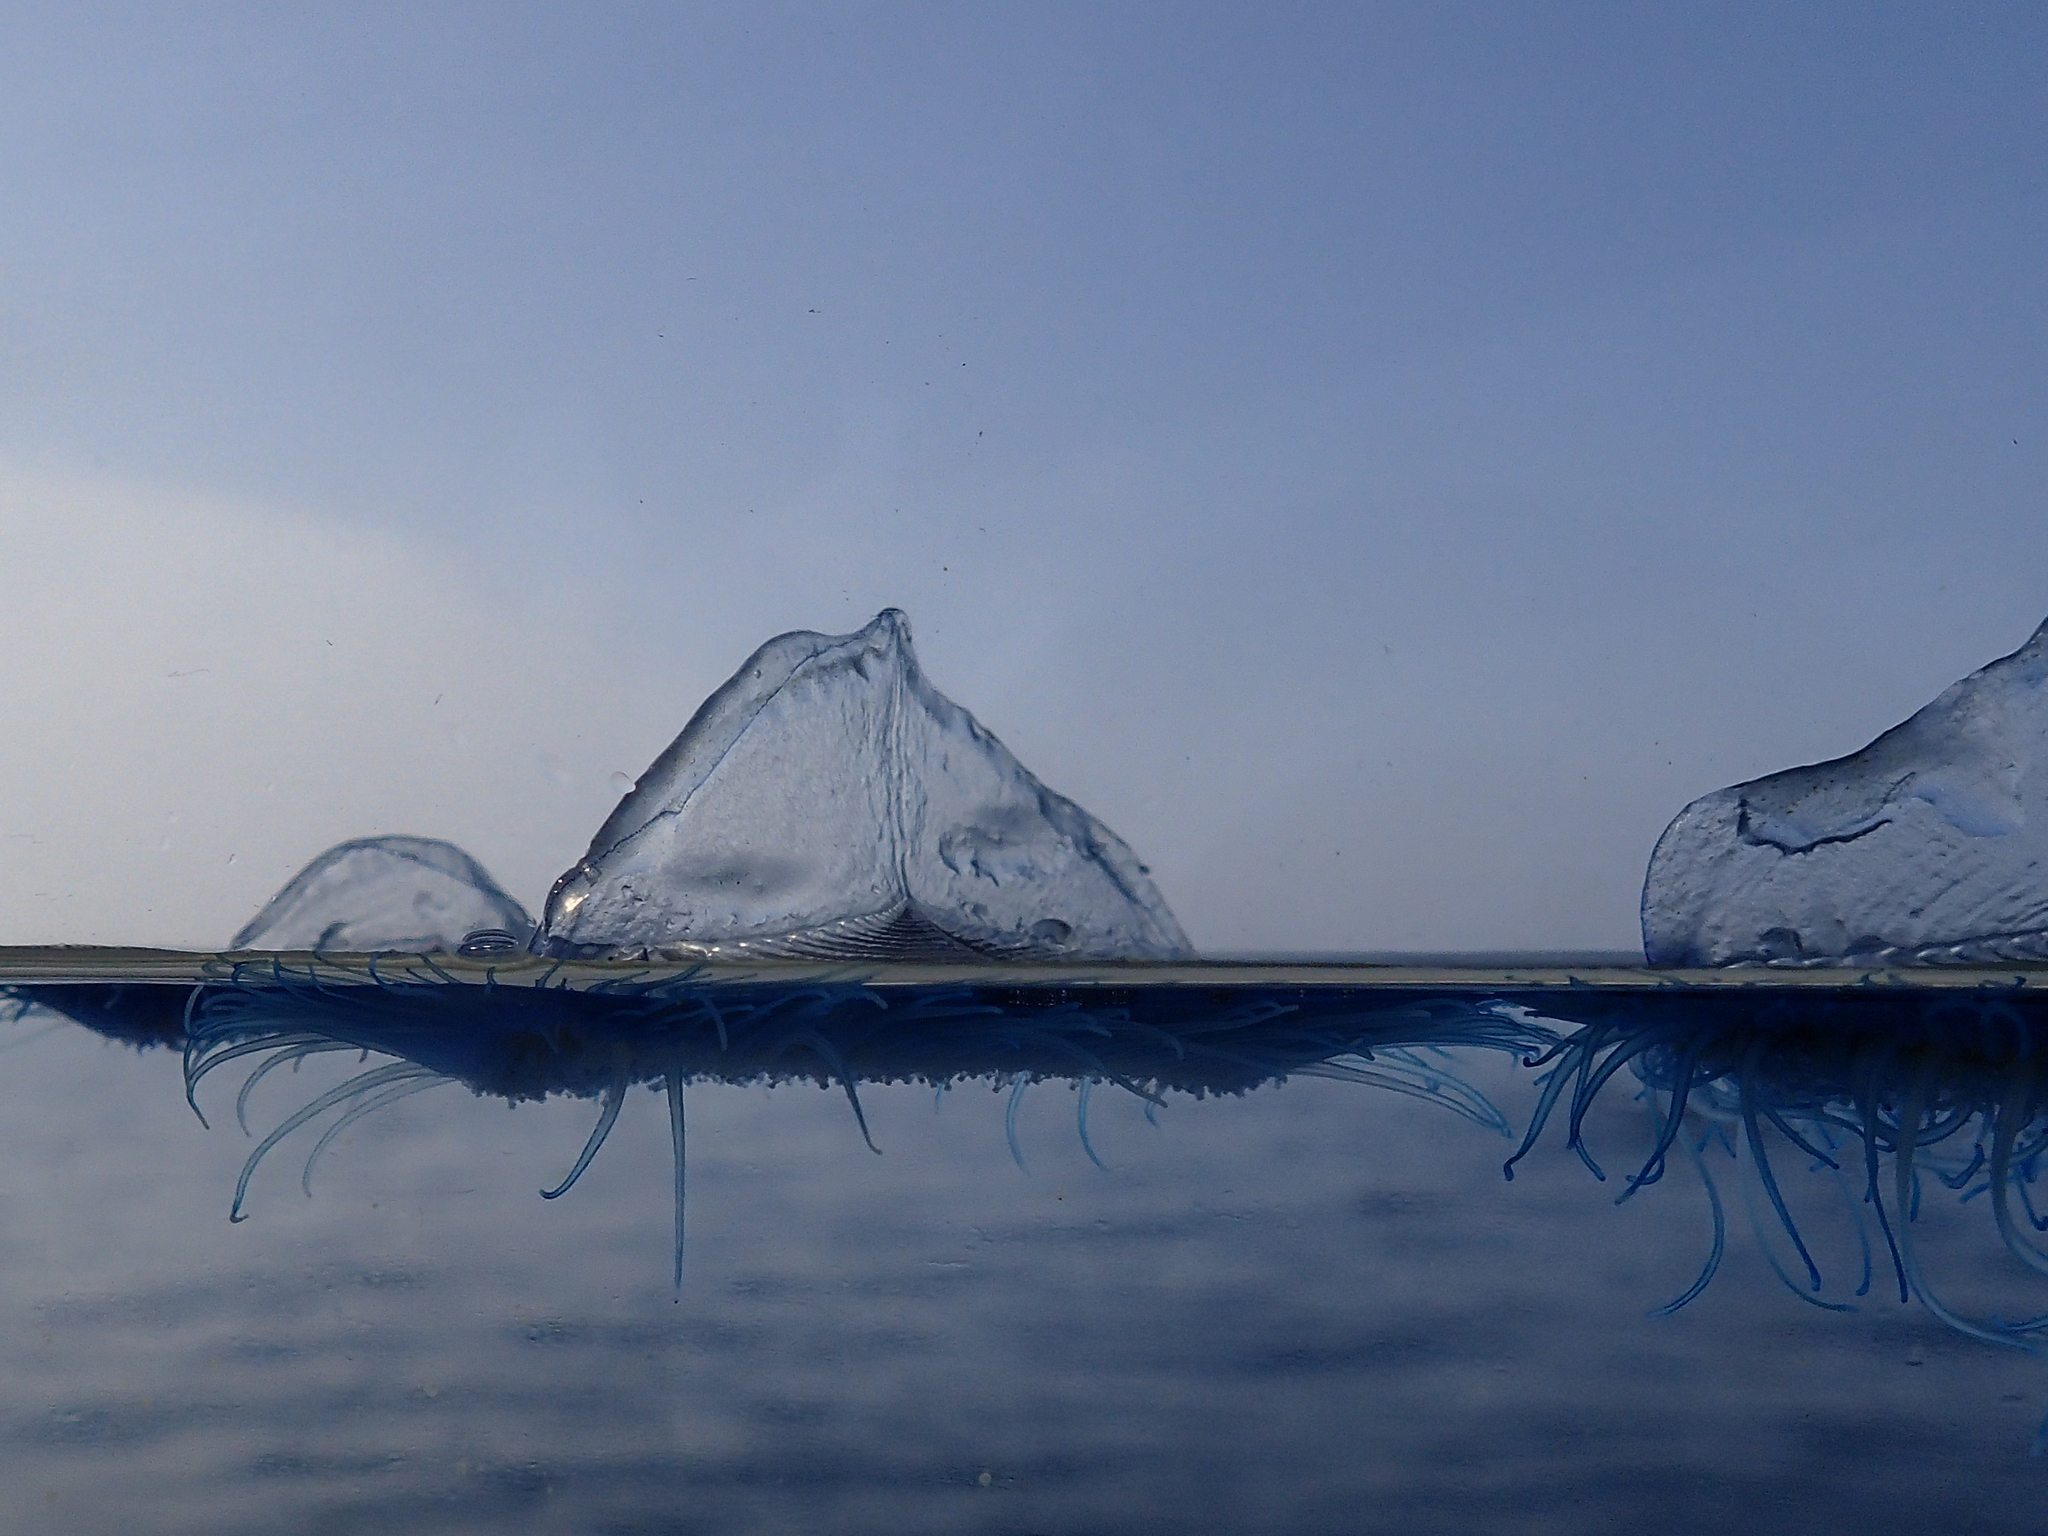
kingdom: Animalia
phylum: Cnidaria
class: Hydrozoa
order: Anthoathecata
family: Porpitidae
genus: Velella
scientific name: Velella velella
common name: By-the-wind-sailor
